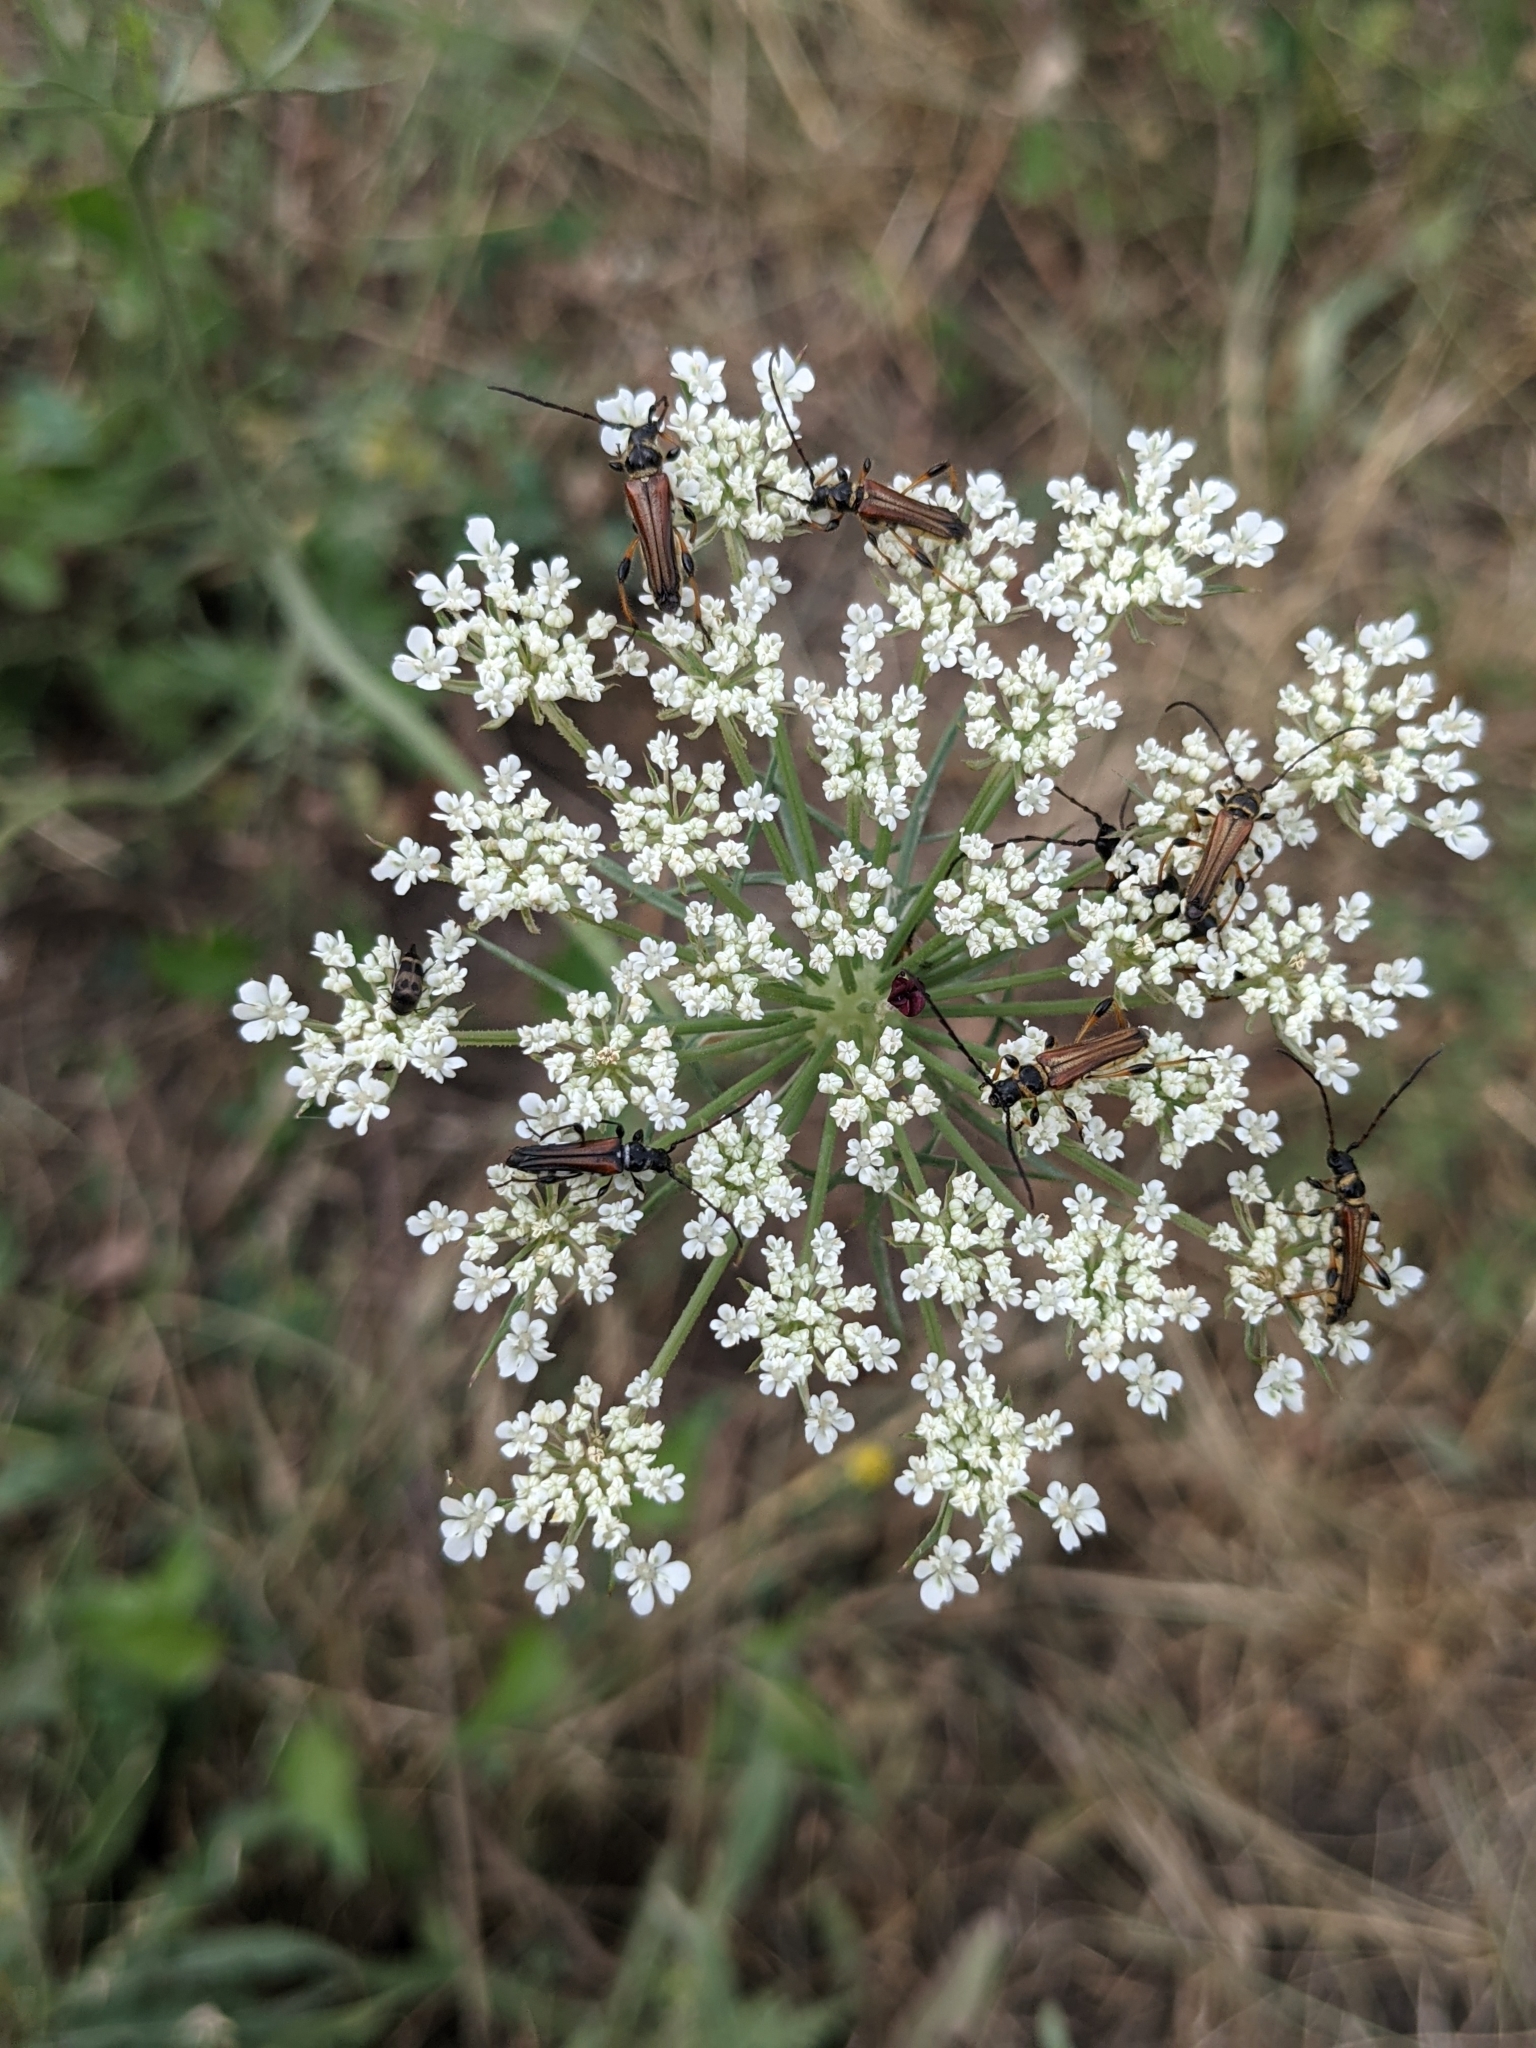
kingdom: Animalia
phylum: Arthropoda
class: Insecta
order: Coleoptera
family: Cerambycidae
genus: Stenopterus
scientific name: Stenopterus ater
